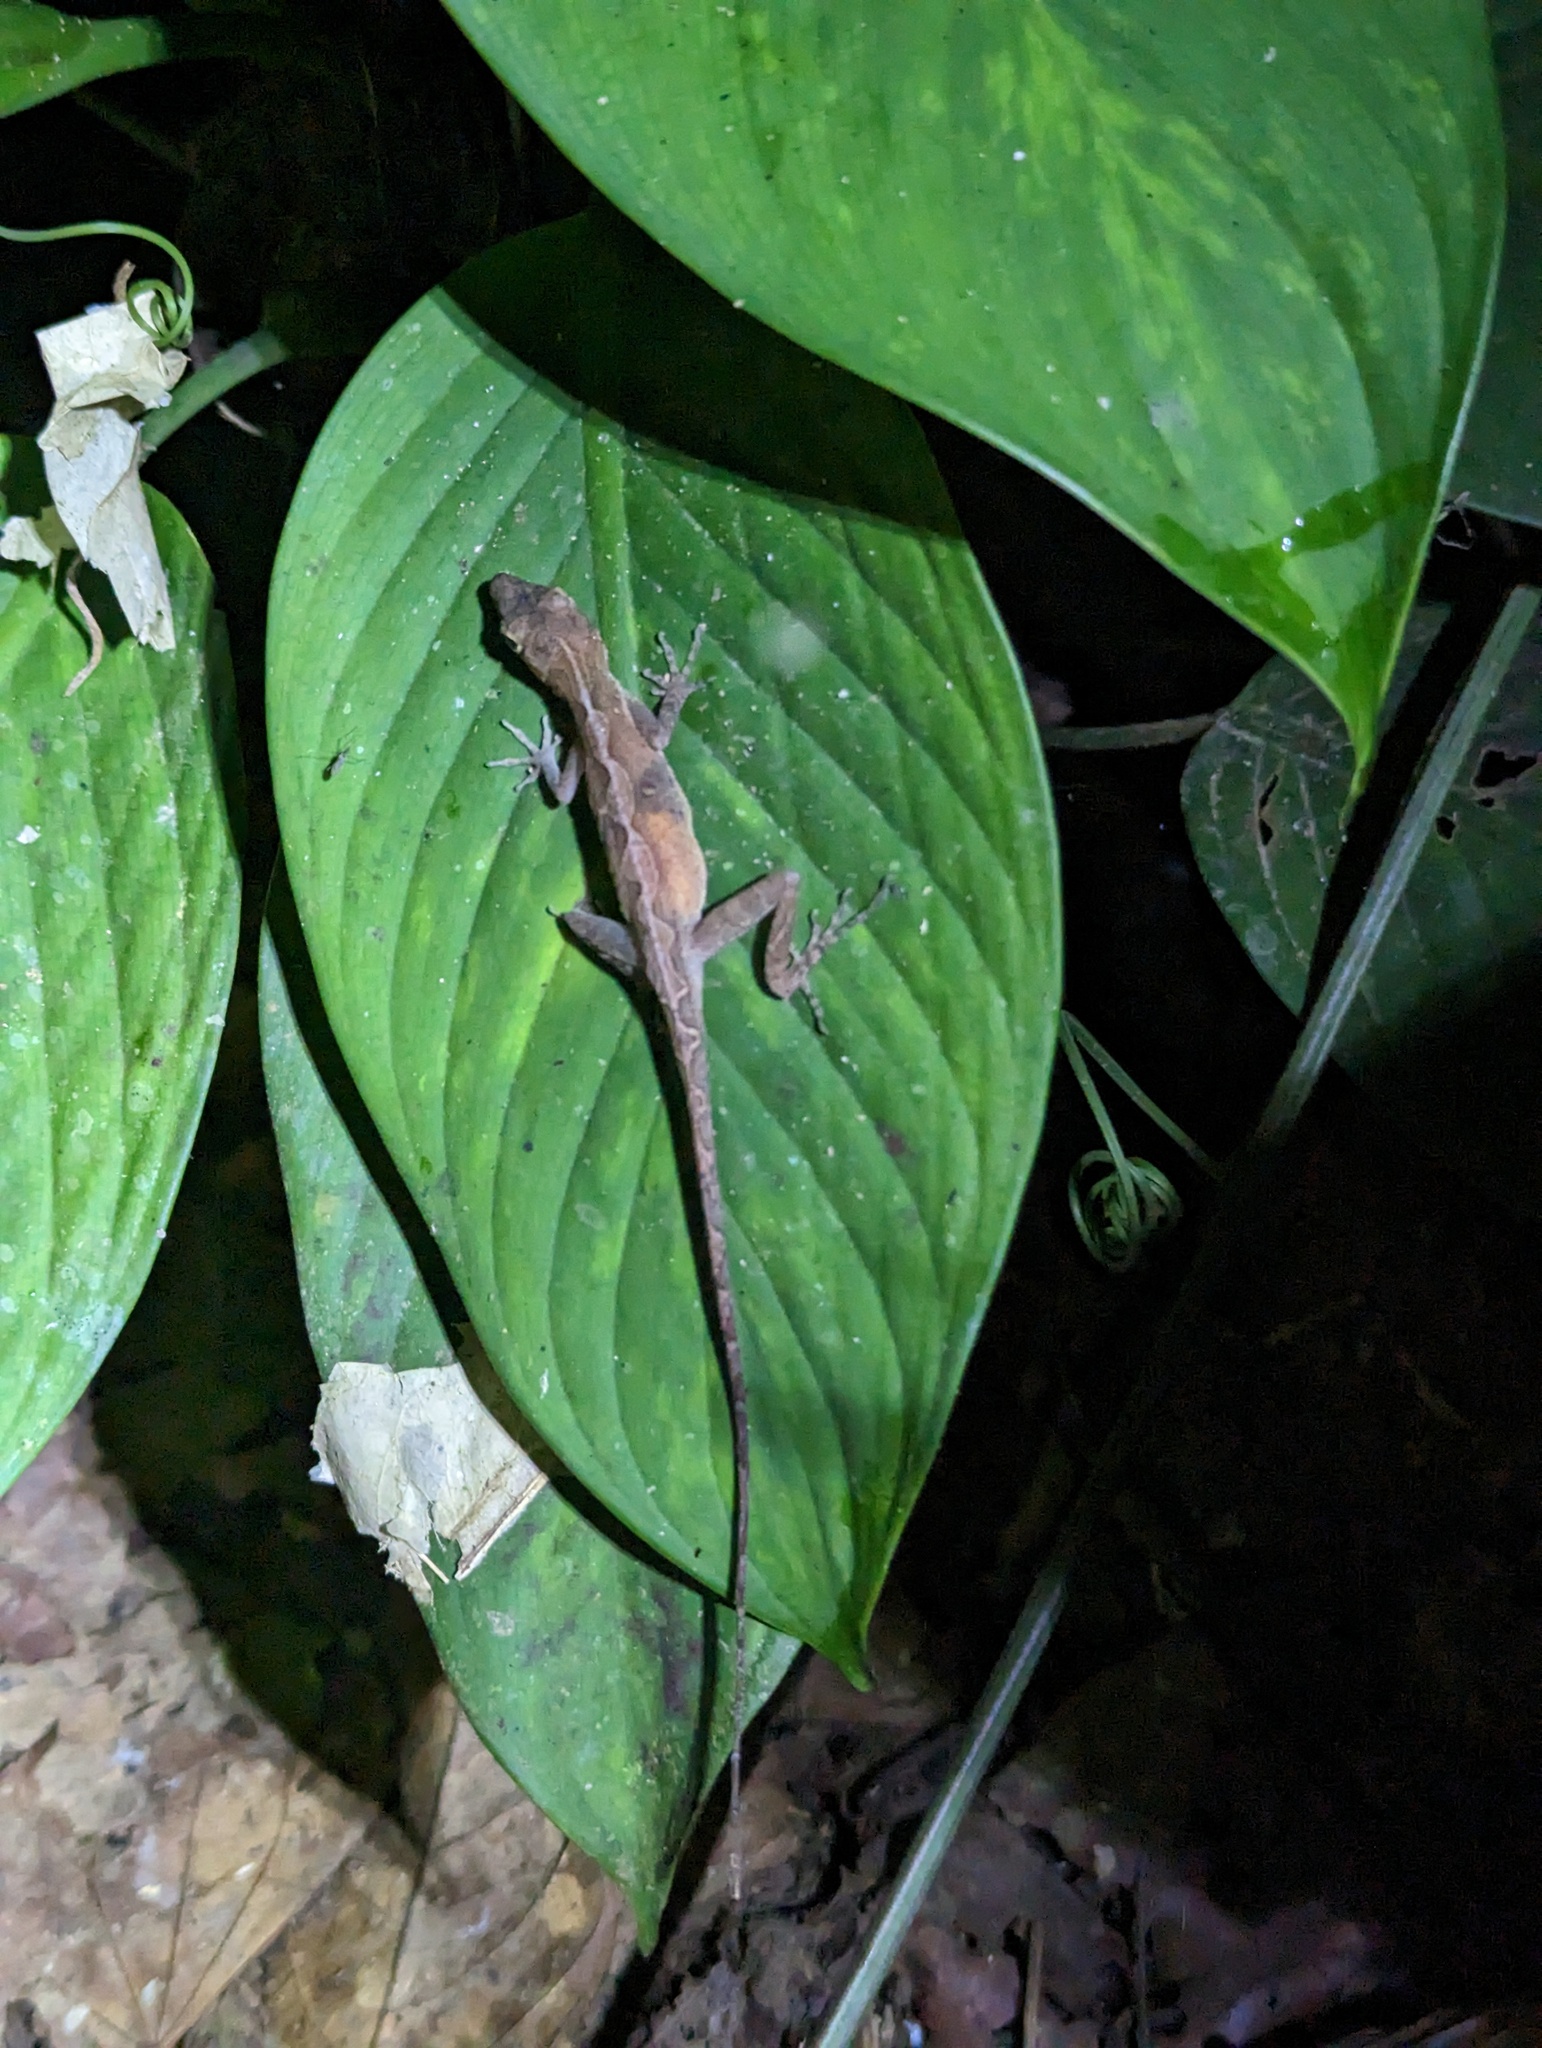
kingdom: Animalia
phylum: Chordata
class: Squamata
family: Dactyloidae
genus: Anolis
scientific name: Anolis osa
